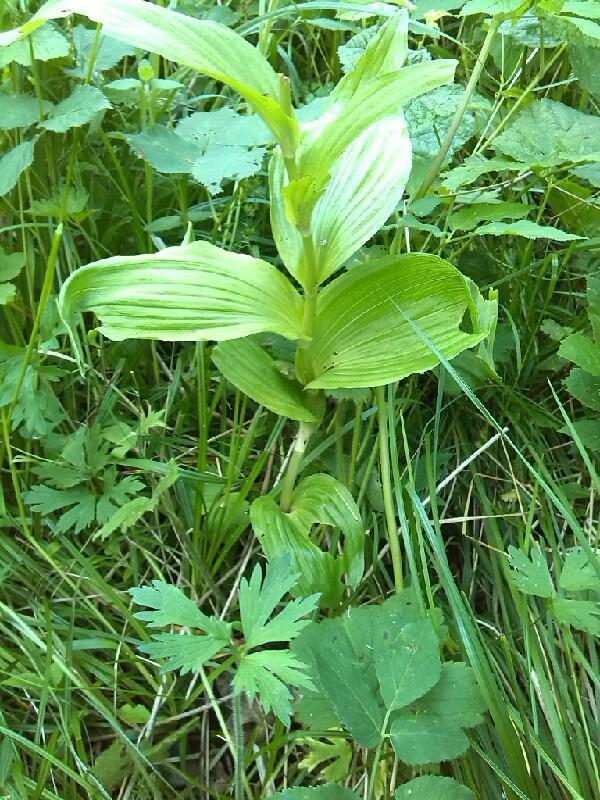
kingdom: Plantae
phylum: Tracheophyta
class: Liliopsida
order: Asparagales
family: Orchidaceae
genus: Cypripedium
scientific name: Cypripedium calceolus
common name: Lady's-slipper
